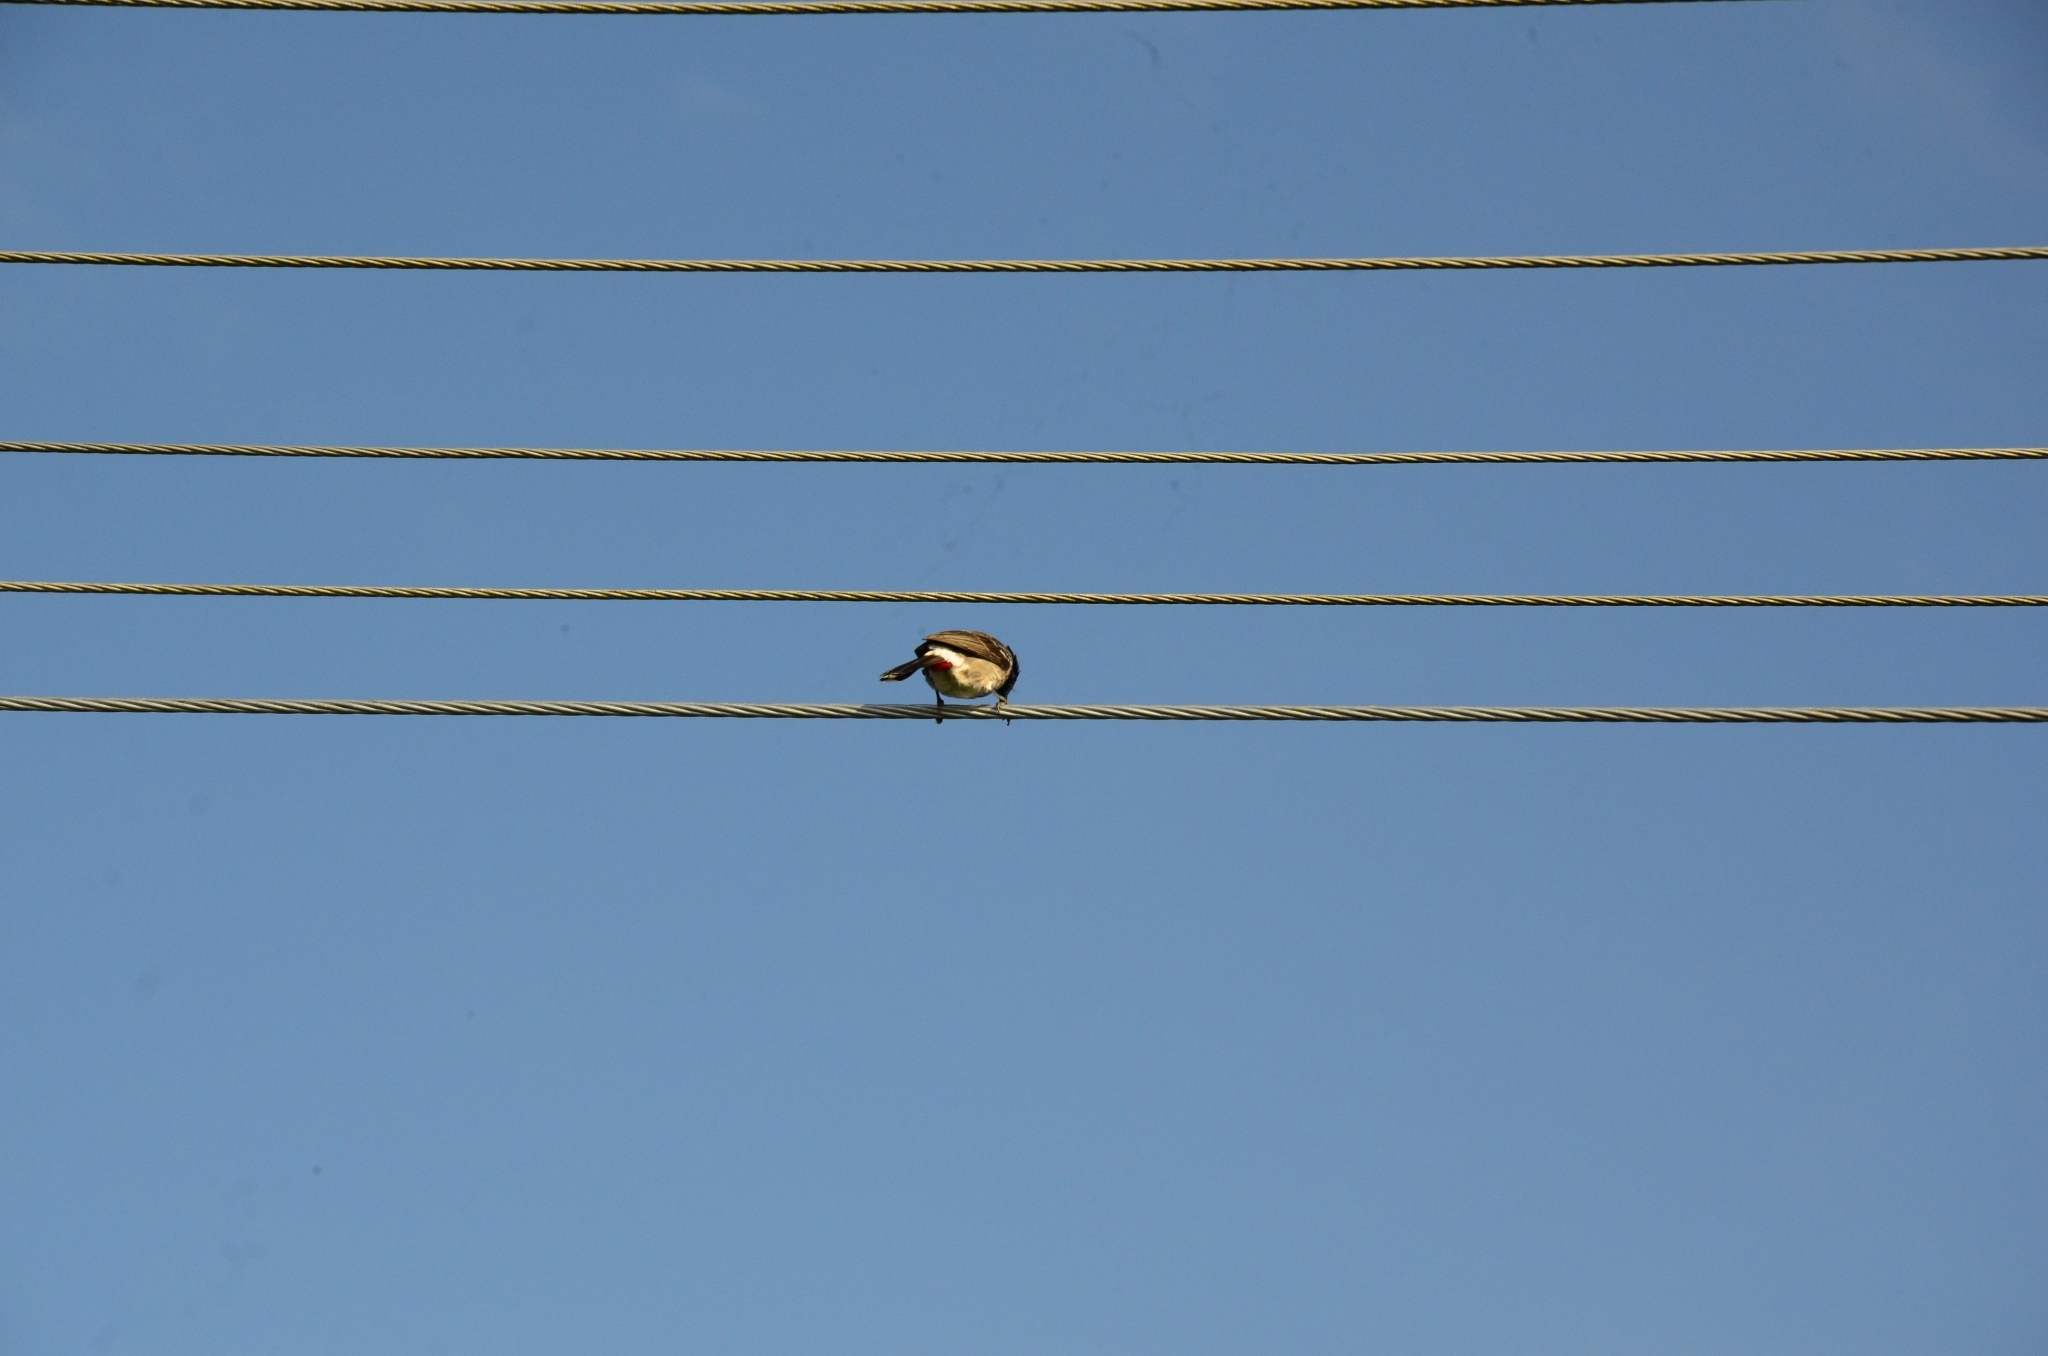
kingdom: Animalia
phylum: Chordata
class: Aves
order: Passeriformes
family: Pycnonotidae
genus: Pycnonotus
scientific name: Pycnonotus cafer
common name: Red-vented bulbul
